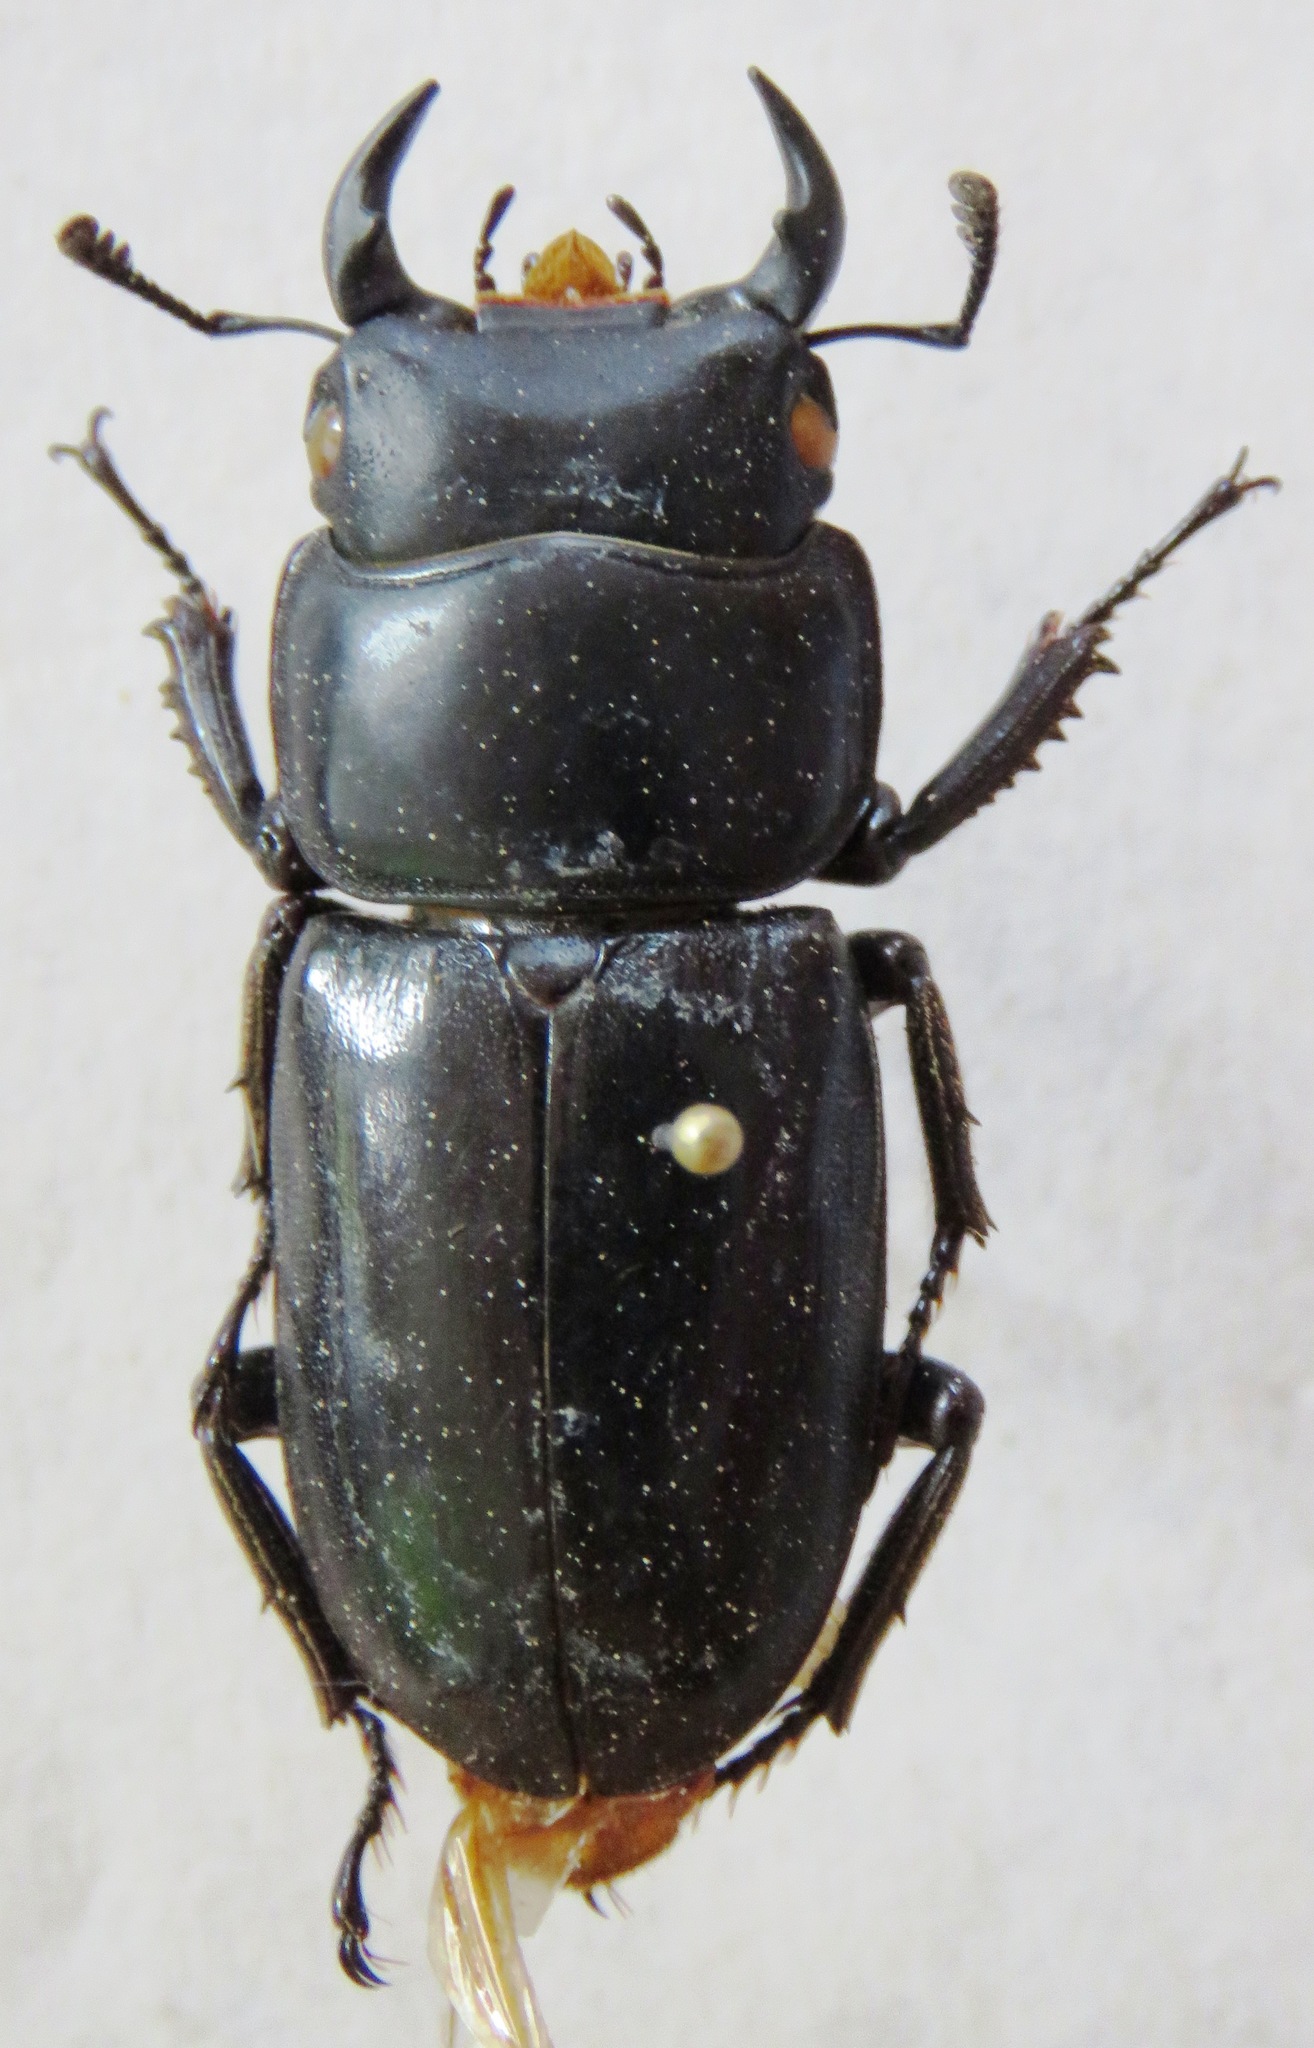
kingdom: Animalia
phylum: Arthropoda
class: Insecta
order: Coleoptera
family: Lucanidae
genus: Dorcus
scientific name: Dorcus yaksha
